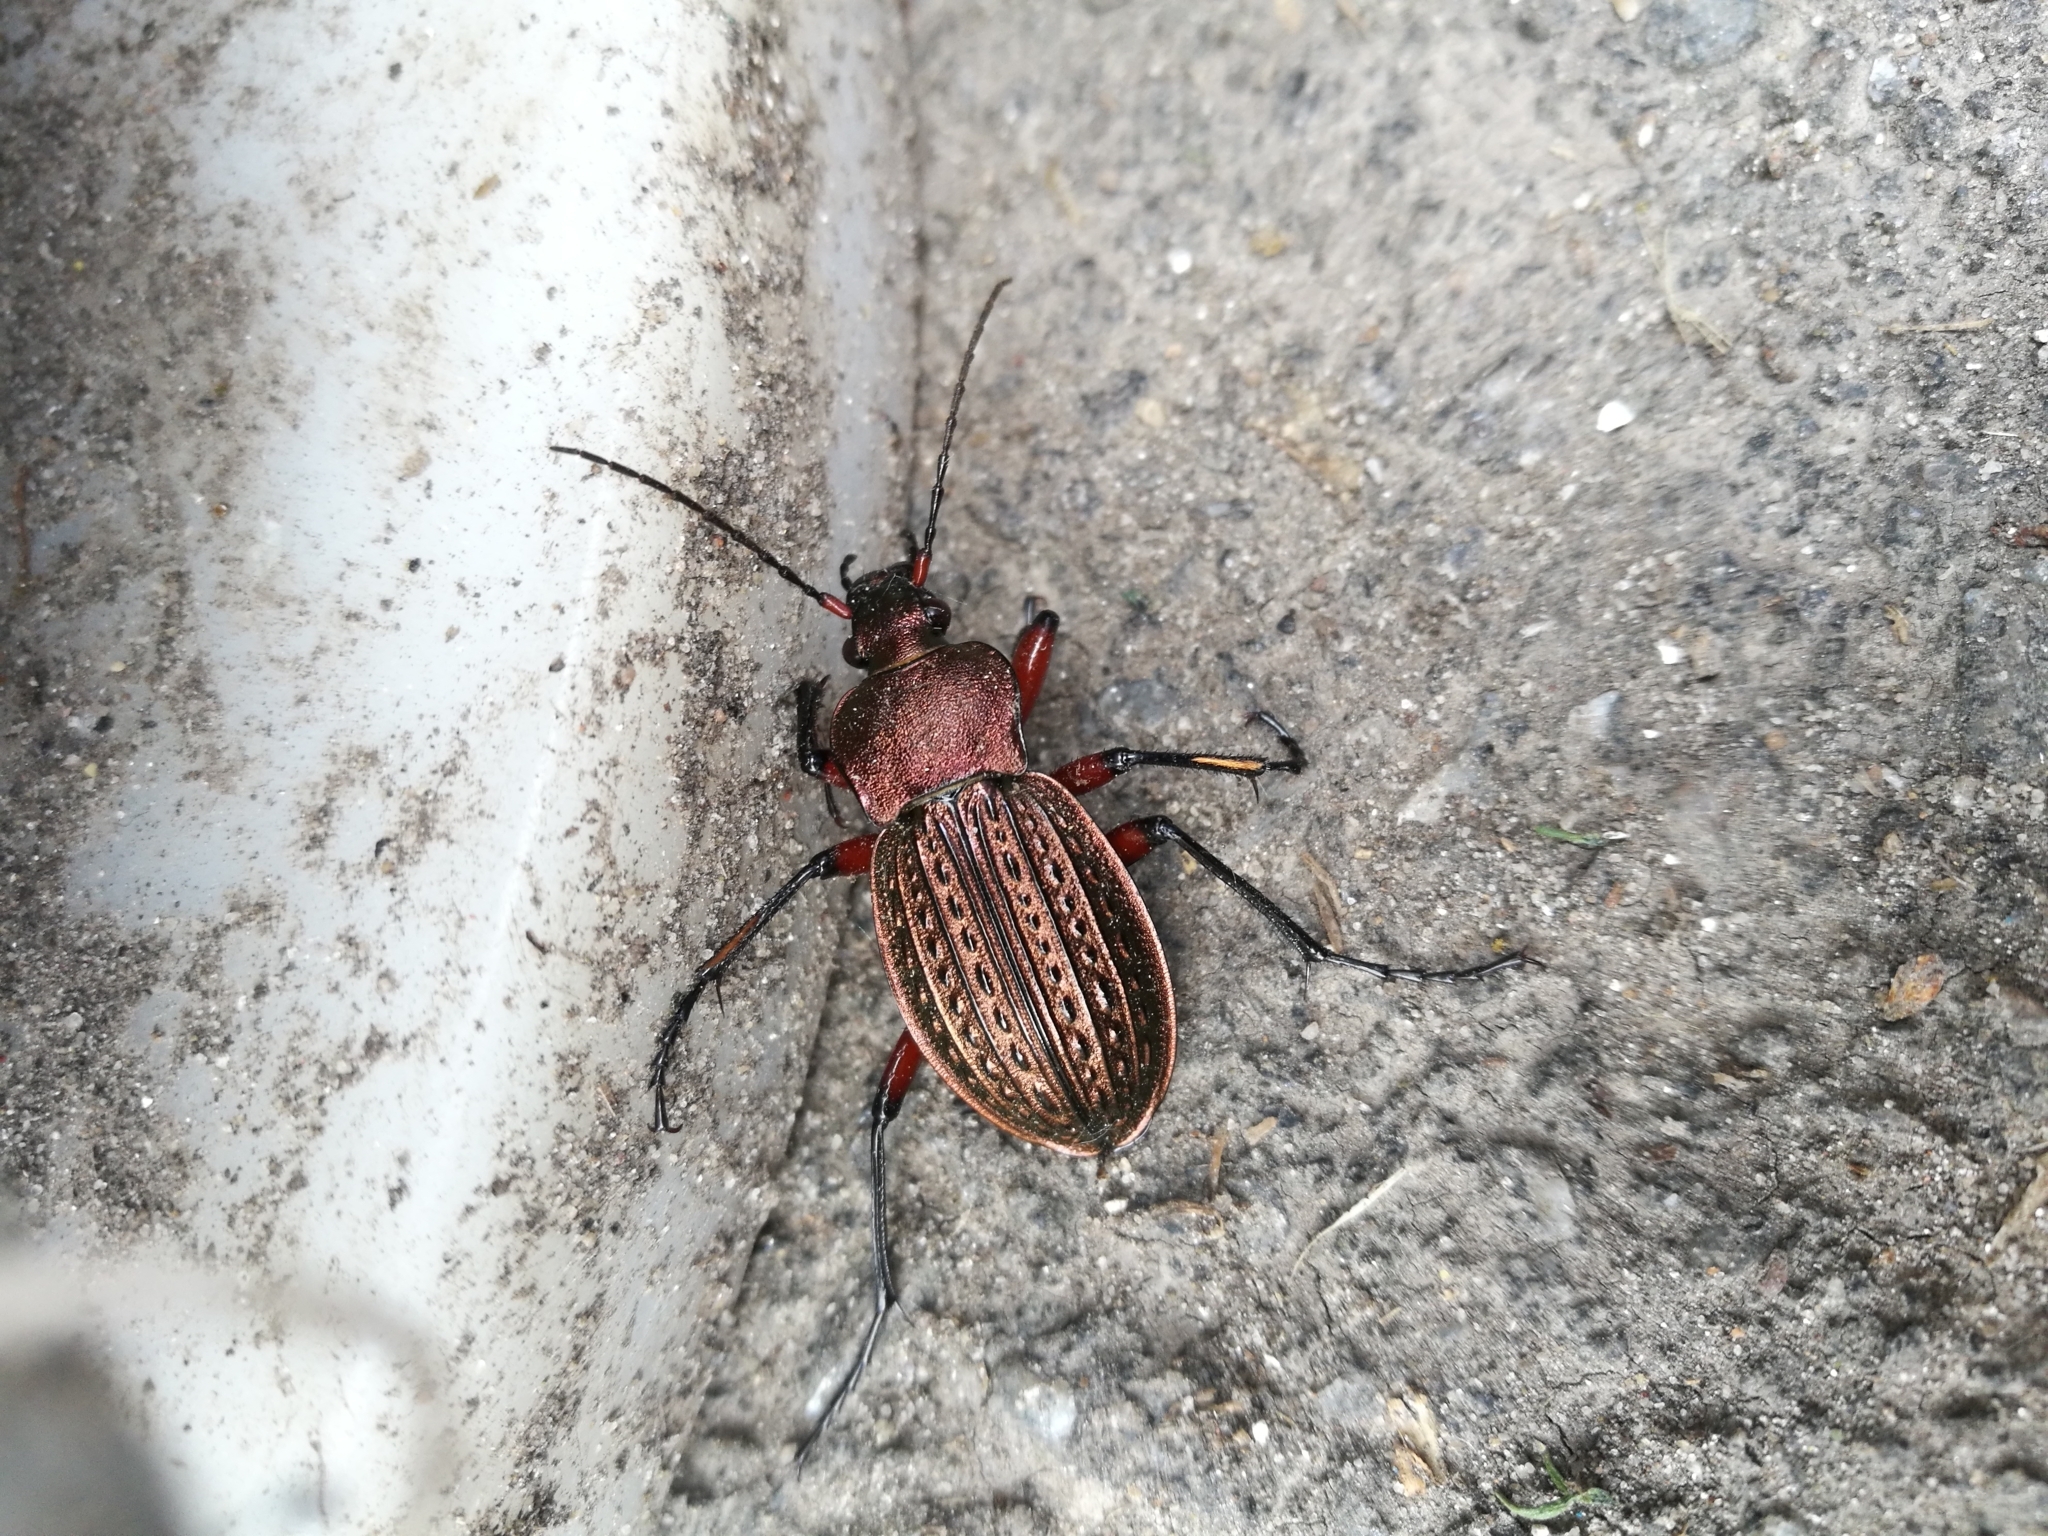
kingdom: Animalia
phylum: Arthropoda
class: Insecta
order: Coleoptera
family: Carabidae
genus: Carabus
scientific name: Carabus cancellatus
